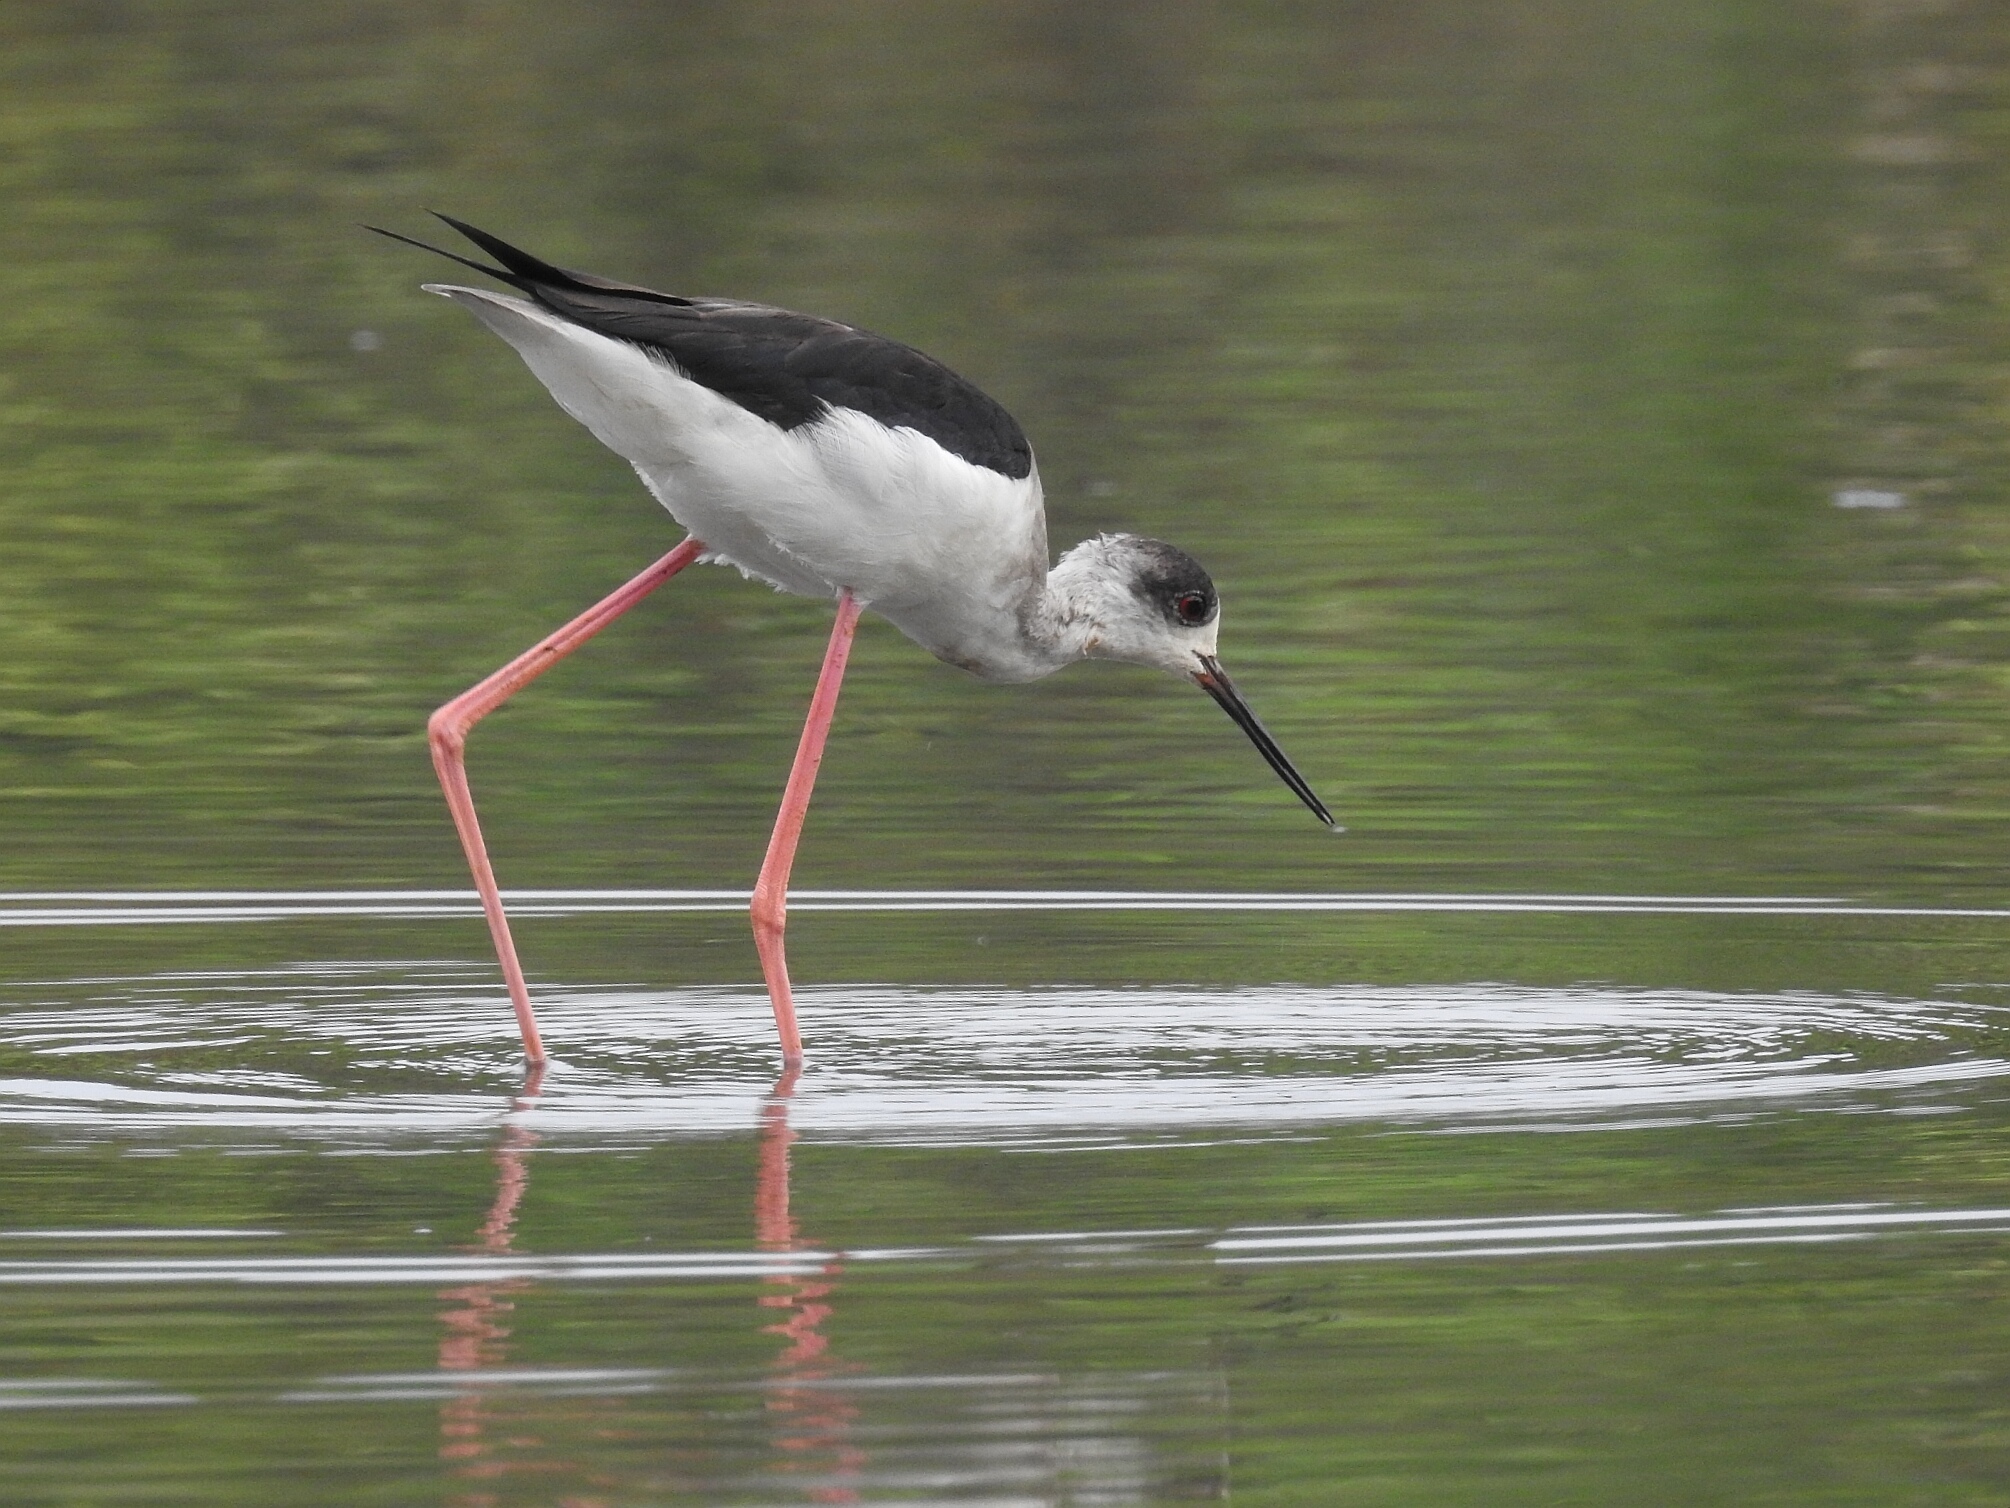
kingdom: Animalia
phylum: Chordata
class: Aves
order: Charadriiformes
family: Recurvirostridae
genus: Himantopus
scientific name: Himantopus himantopus
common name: Black-winged stilt
